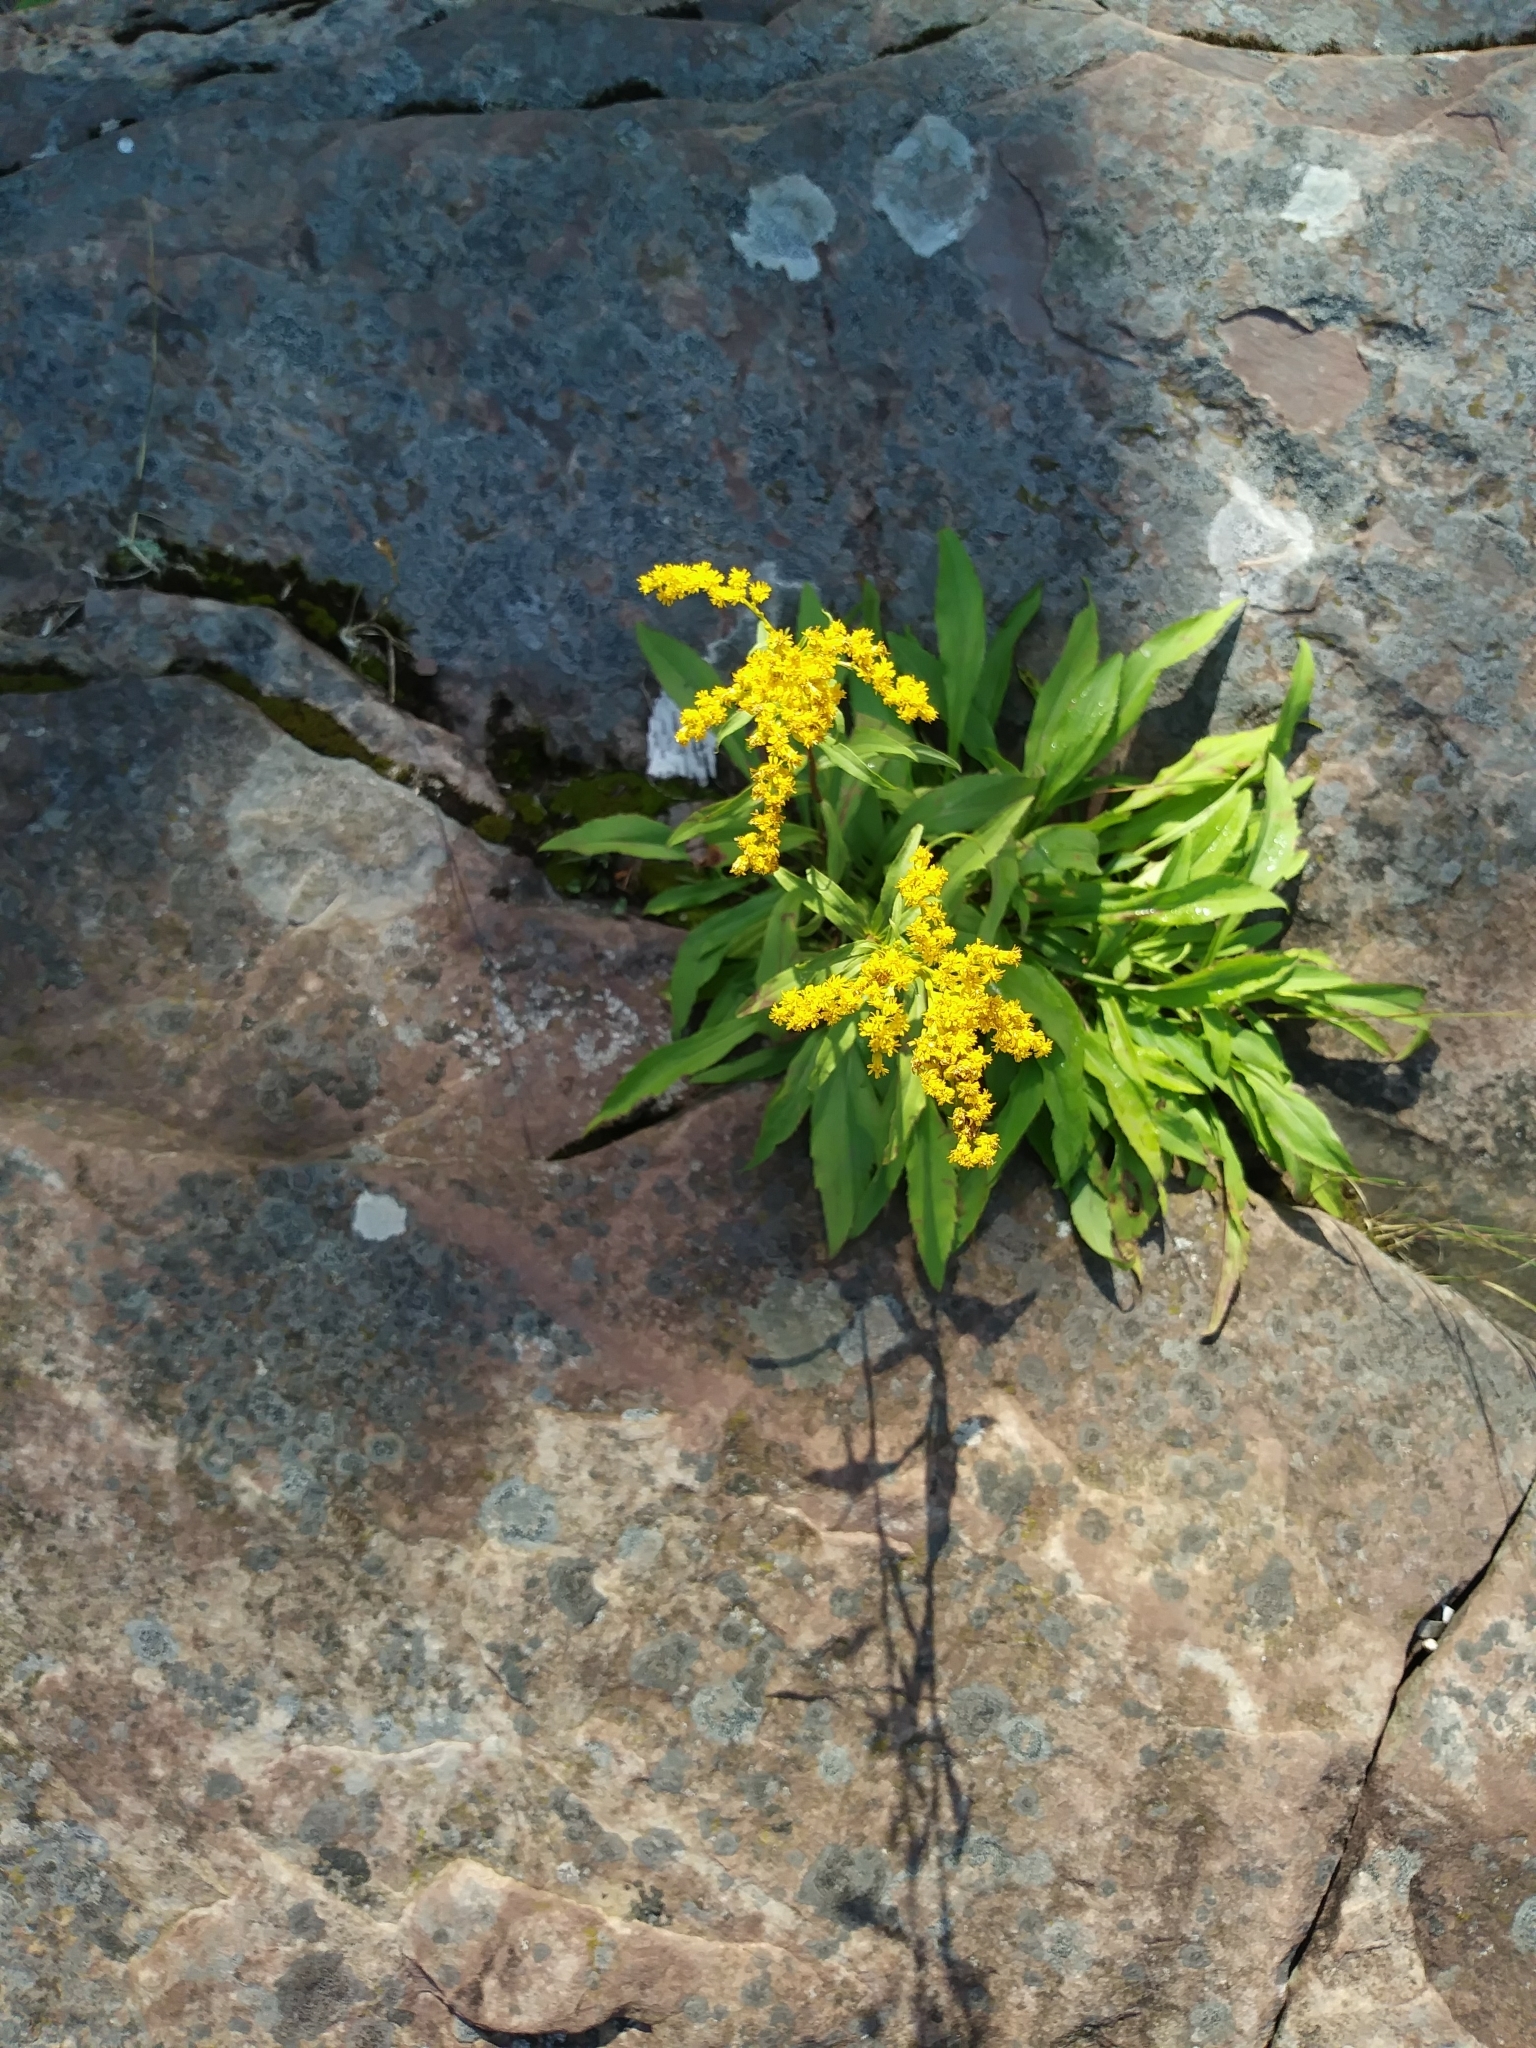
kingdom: Plantae
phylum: Tracheophyta
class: Magnoliopsida
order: Asterales
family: Asteraceae
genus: Solidago
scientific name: Solidago simplex
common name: Sticky goldenrod
